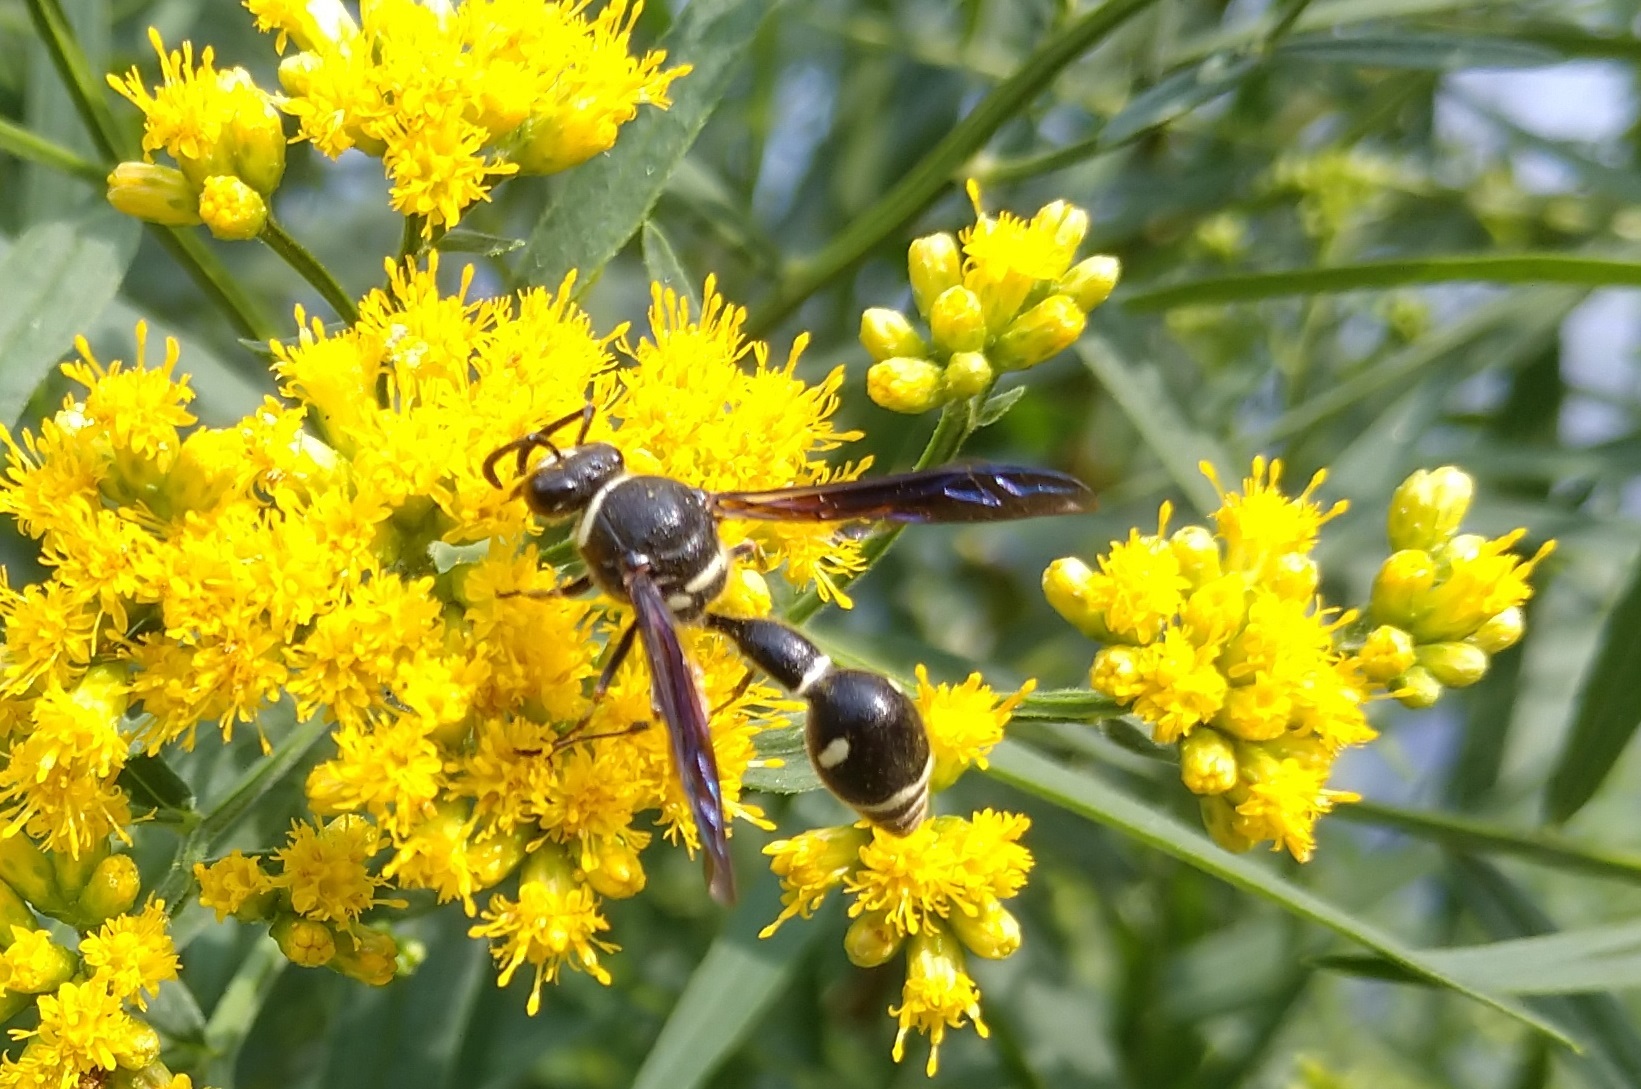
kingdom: Animalia
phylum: Arthropoda
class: Insecta
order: Hymenoptera
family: Vespidae
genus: Eumenes
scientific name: Eumenes fraternus
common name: Fraternal potter wasp
